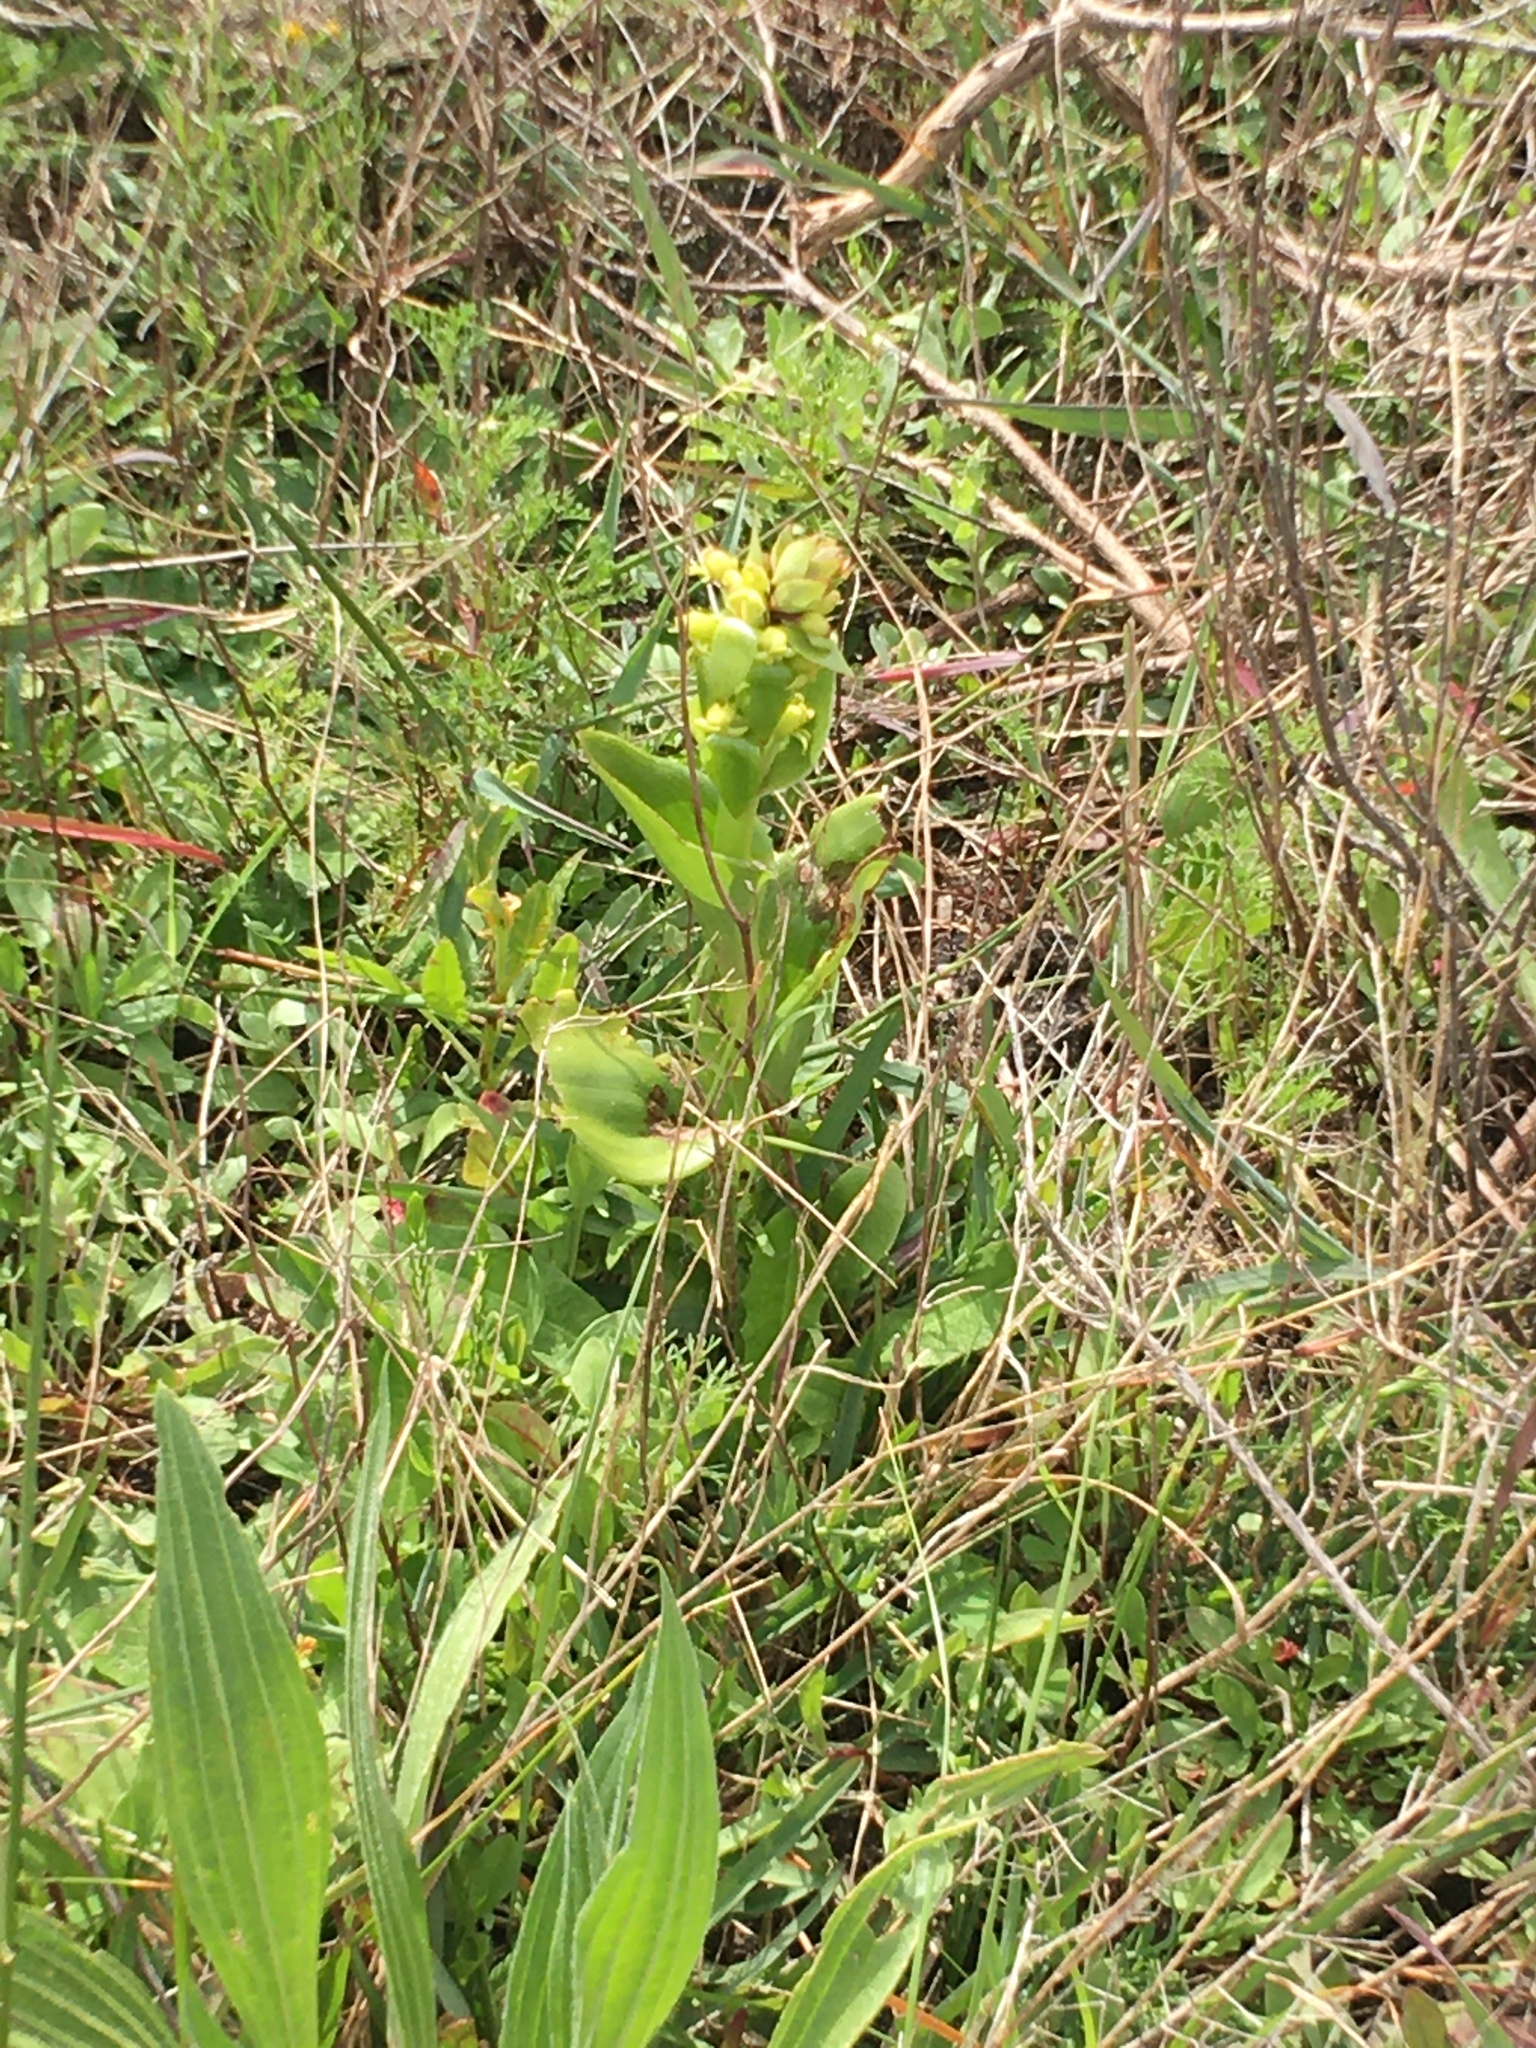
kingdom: Plantae
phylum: Tracheophyta
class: Liliopsida
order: Asparagales
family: Orchidaceae
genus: Satyrium
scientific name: Satyrium odorum
